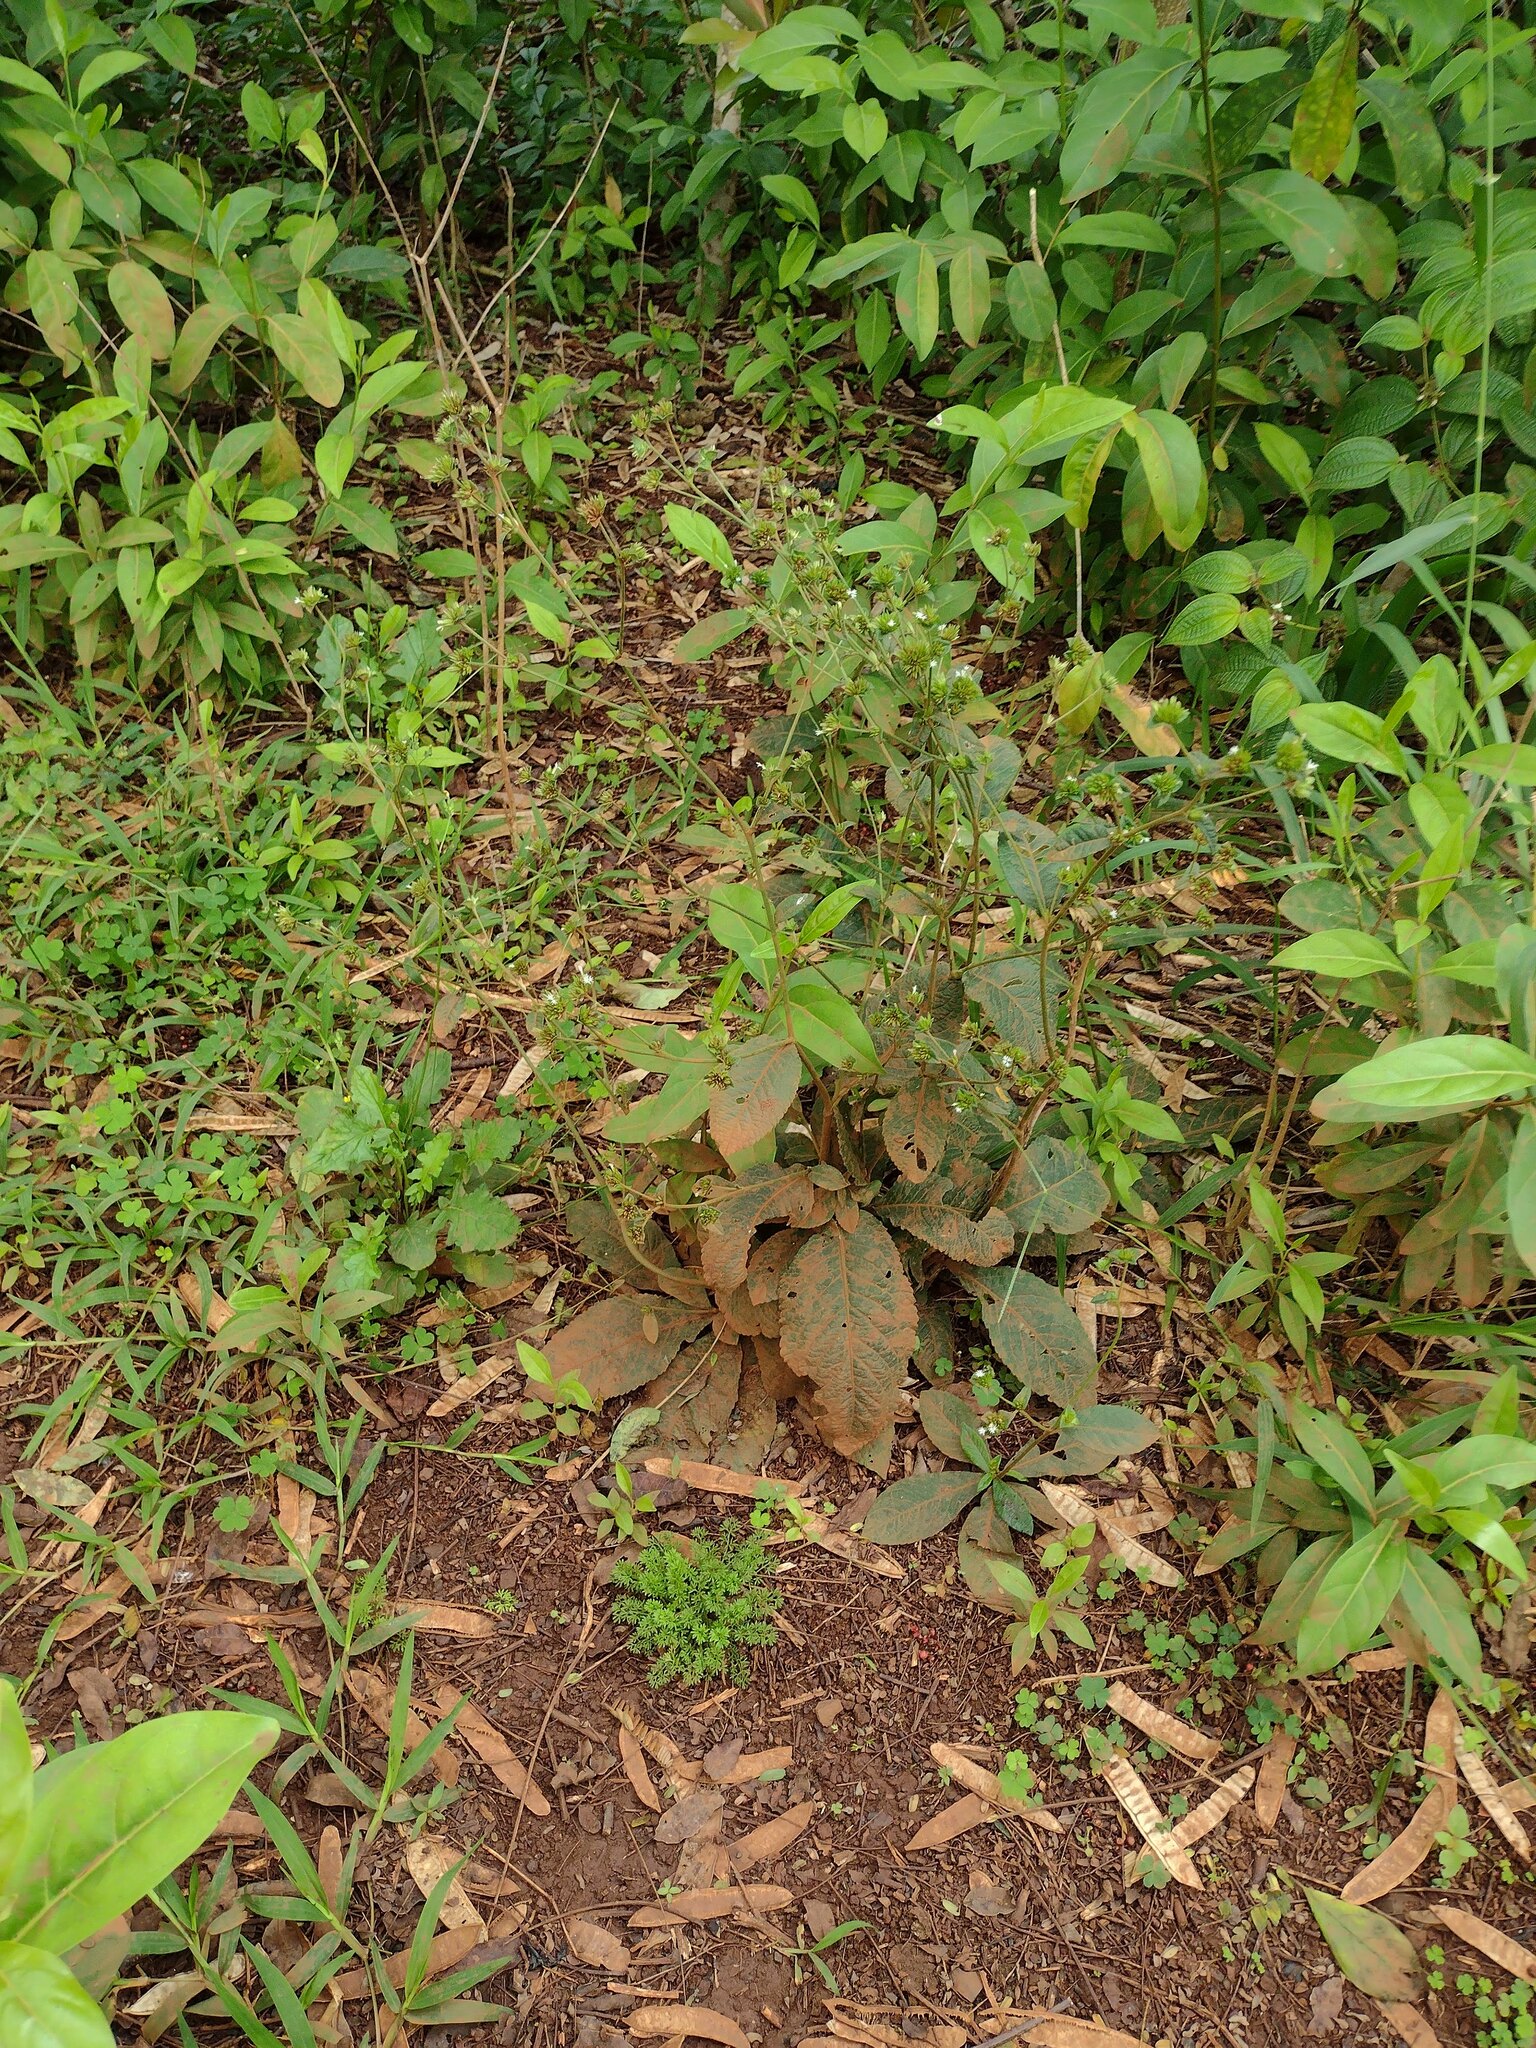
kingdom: Plantae
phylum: Tracheophyta
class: Magnoliopsida
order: Asterales
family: Asteraceae
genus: Elephantopus
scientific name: Elephantopus mollis
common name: Soft elephantsfoot
